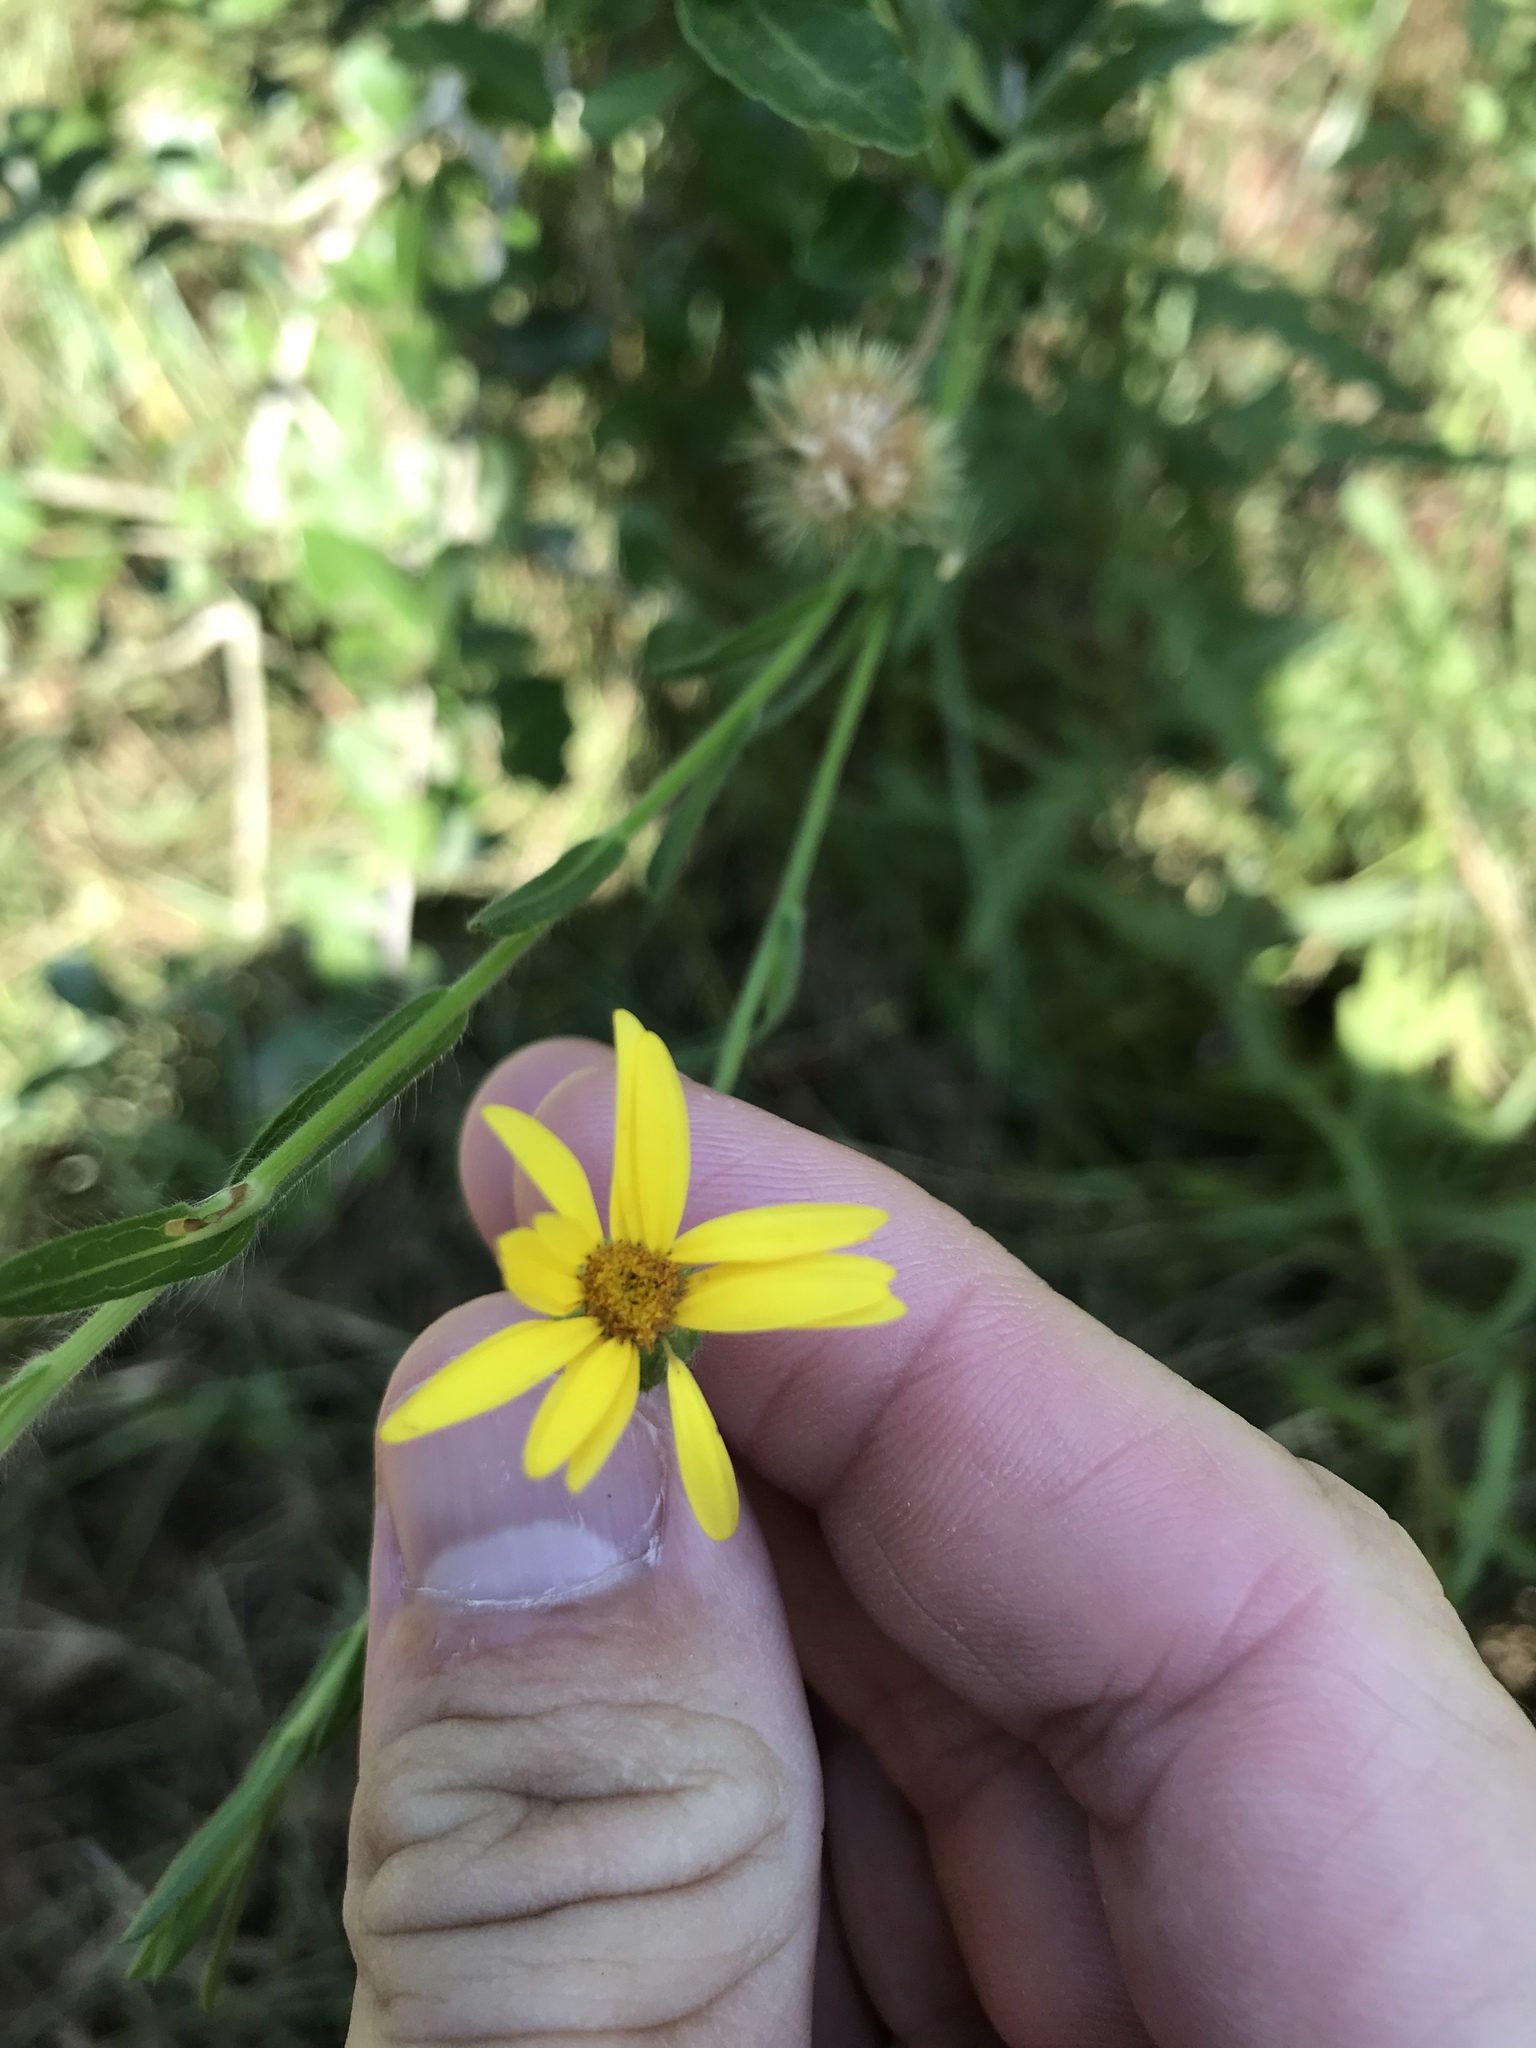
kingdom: Plantae
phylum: Tracheophyta
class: Magnoliopsida
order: Asterales
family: Asteraceae
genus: Bradburia
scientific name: Bradburia pilosa
